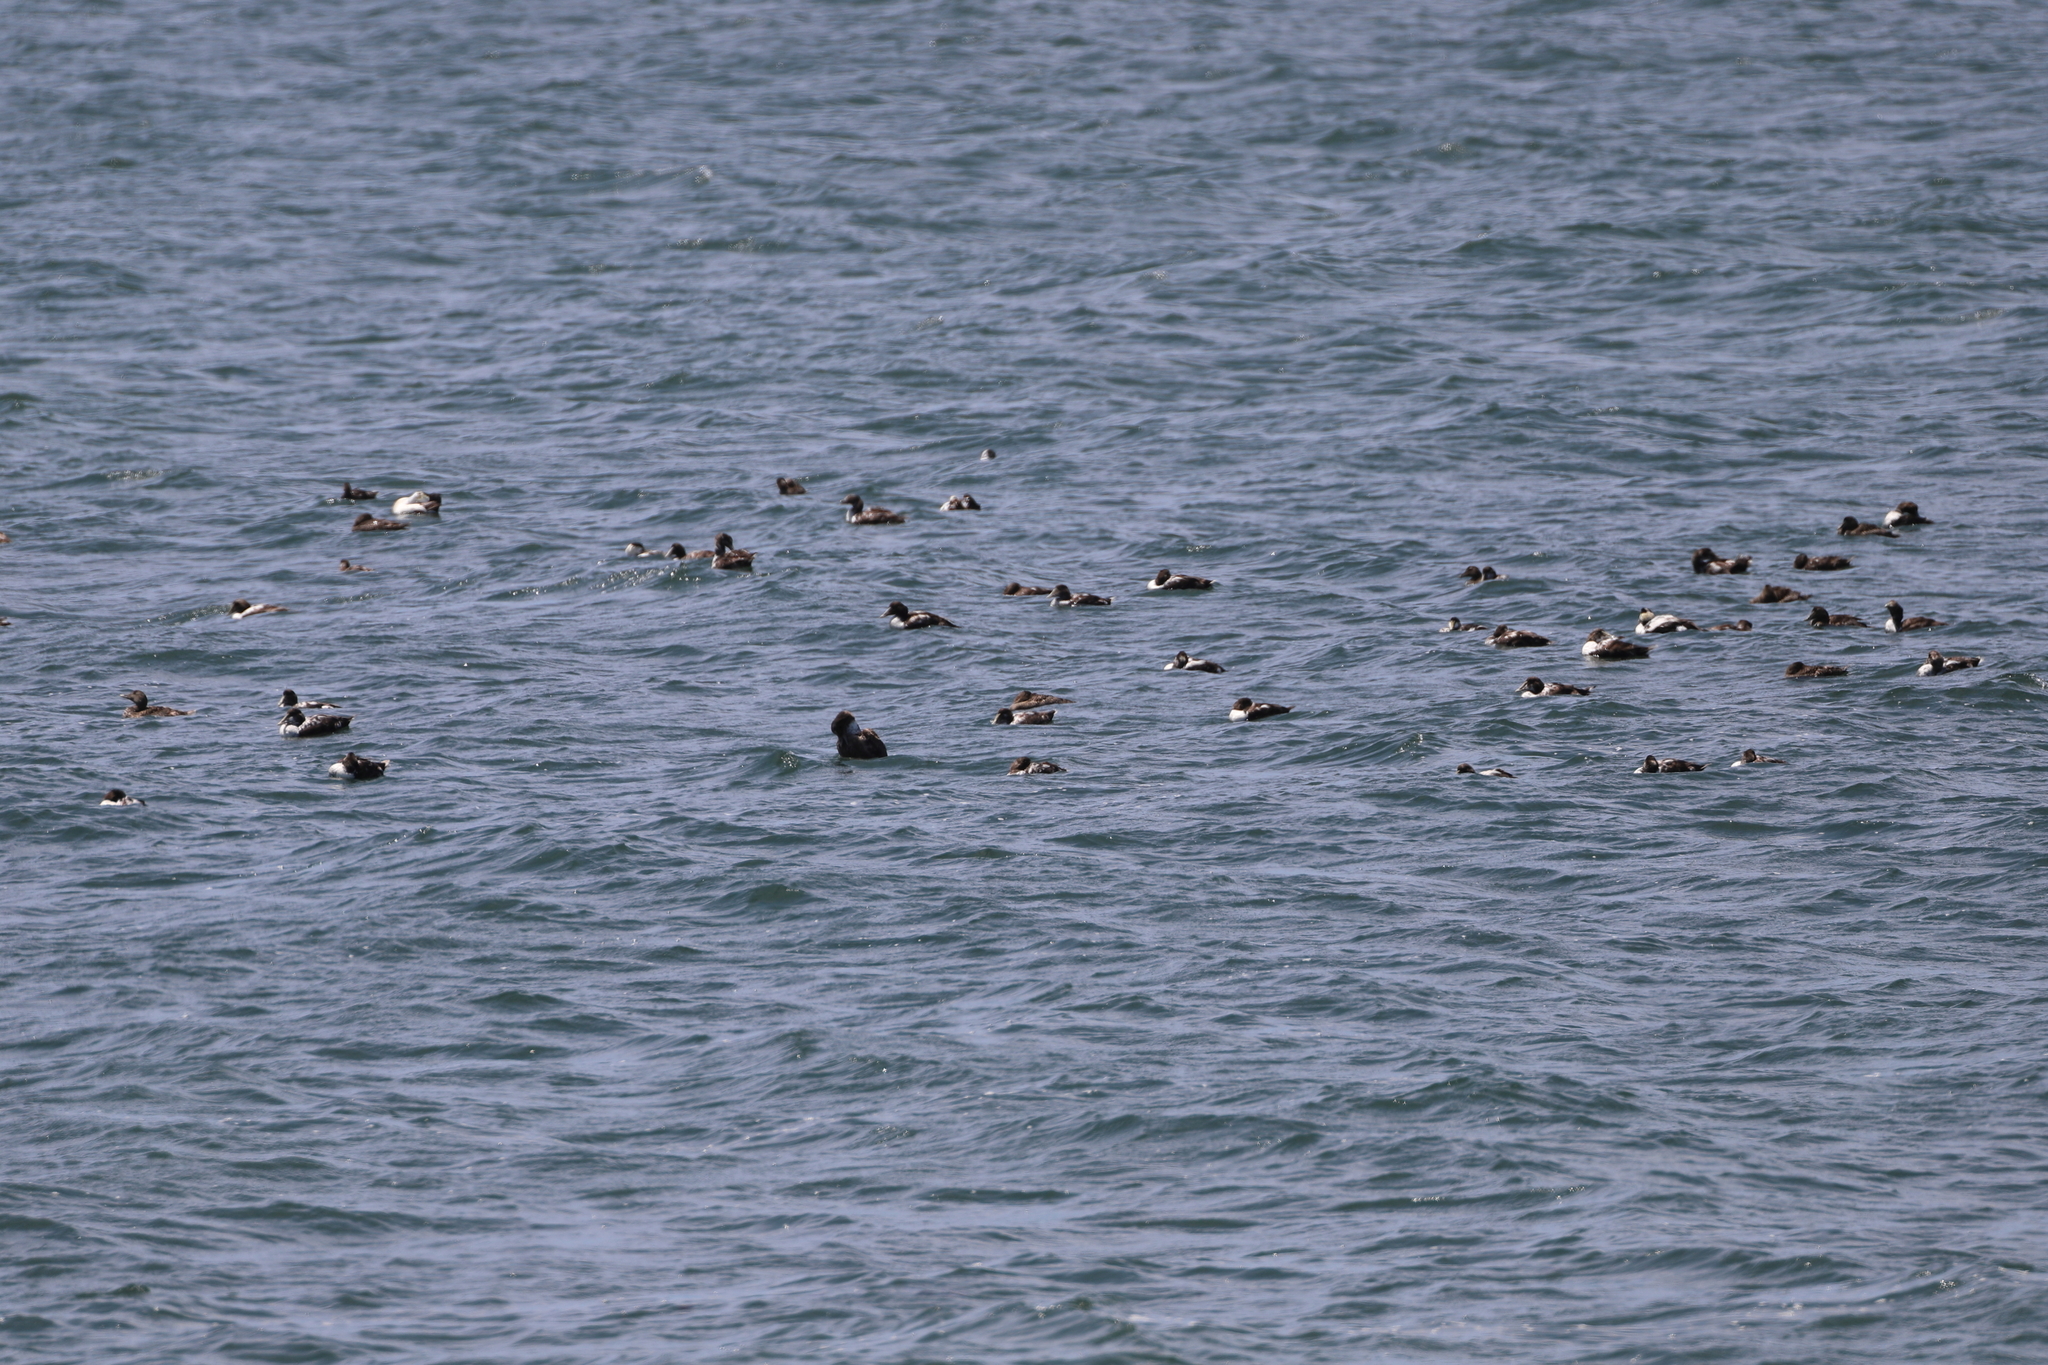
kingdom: Animalia
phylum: Chordata
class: Aves
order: Anseriformes
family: Anatidae
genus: Somateria
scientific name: Somateria mollissima
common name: Common eider
